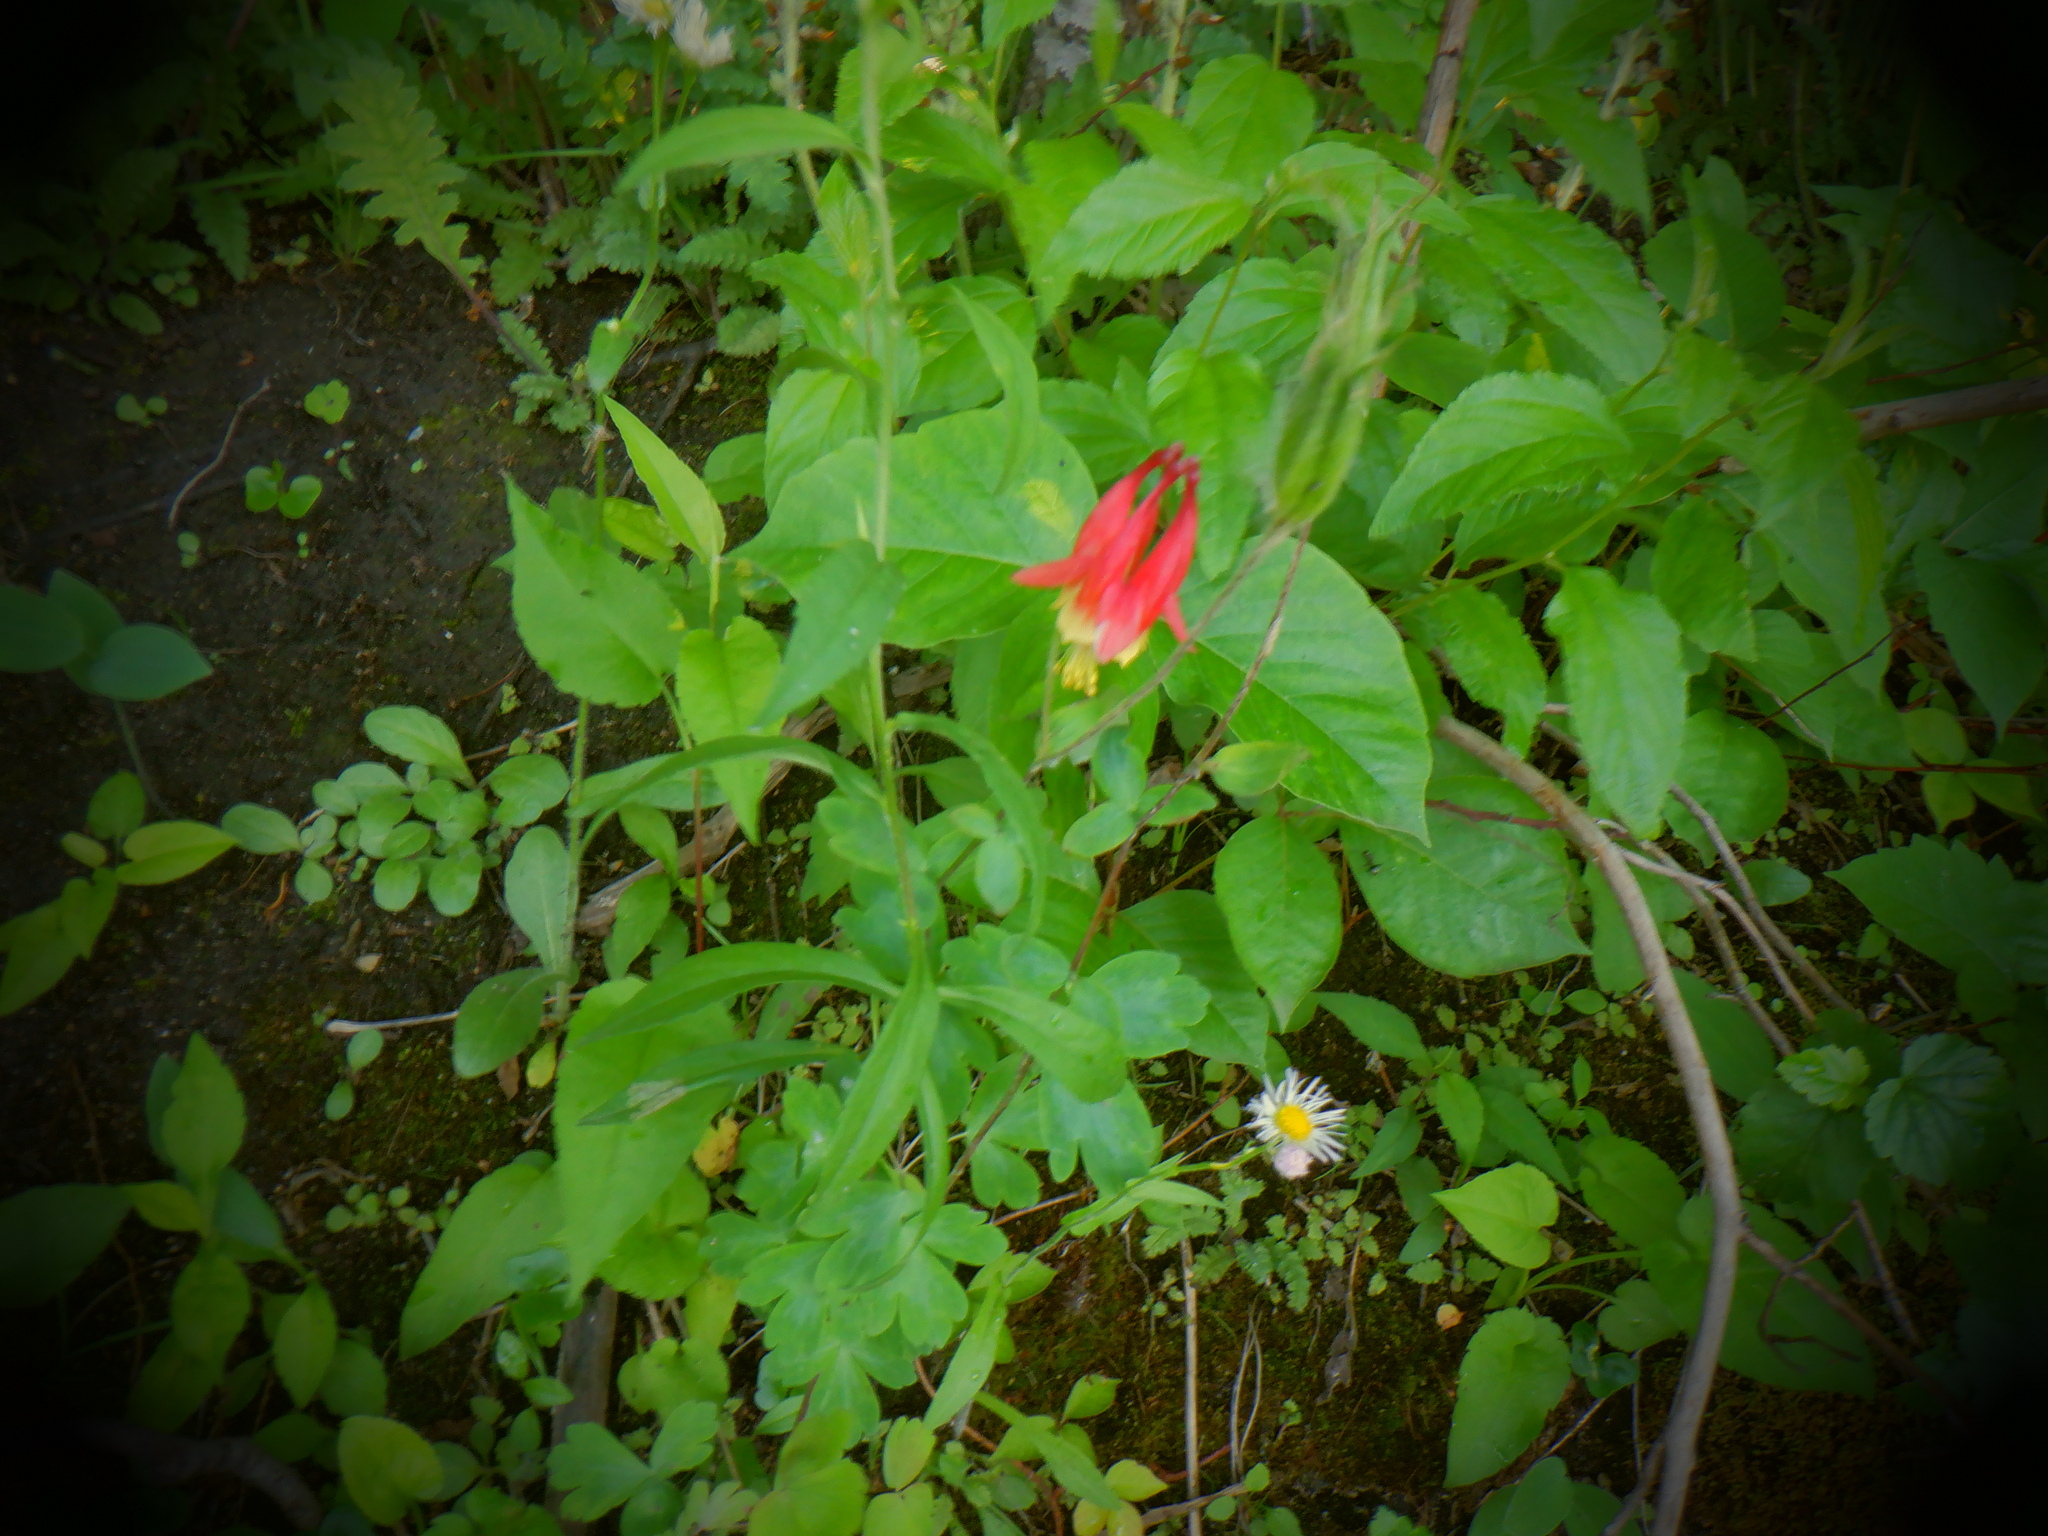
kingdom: Plantae
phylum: Tracheophyta
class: Magnoliopsida
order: Ranunculales
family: Ranunculaceae
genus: Aquilegia
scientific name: Aquilegia canadensis
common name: American columbine
